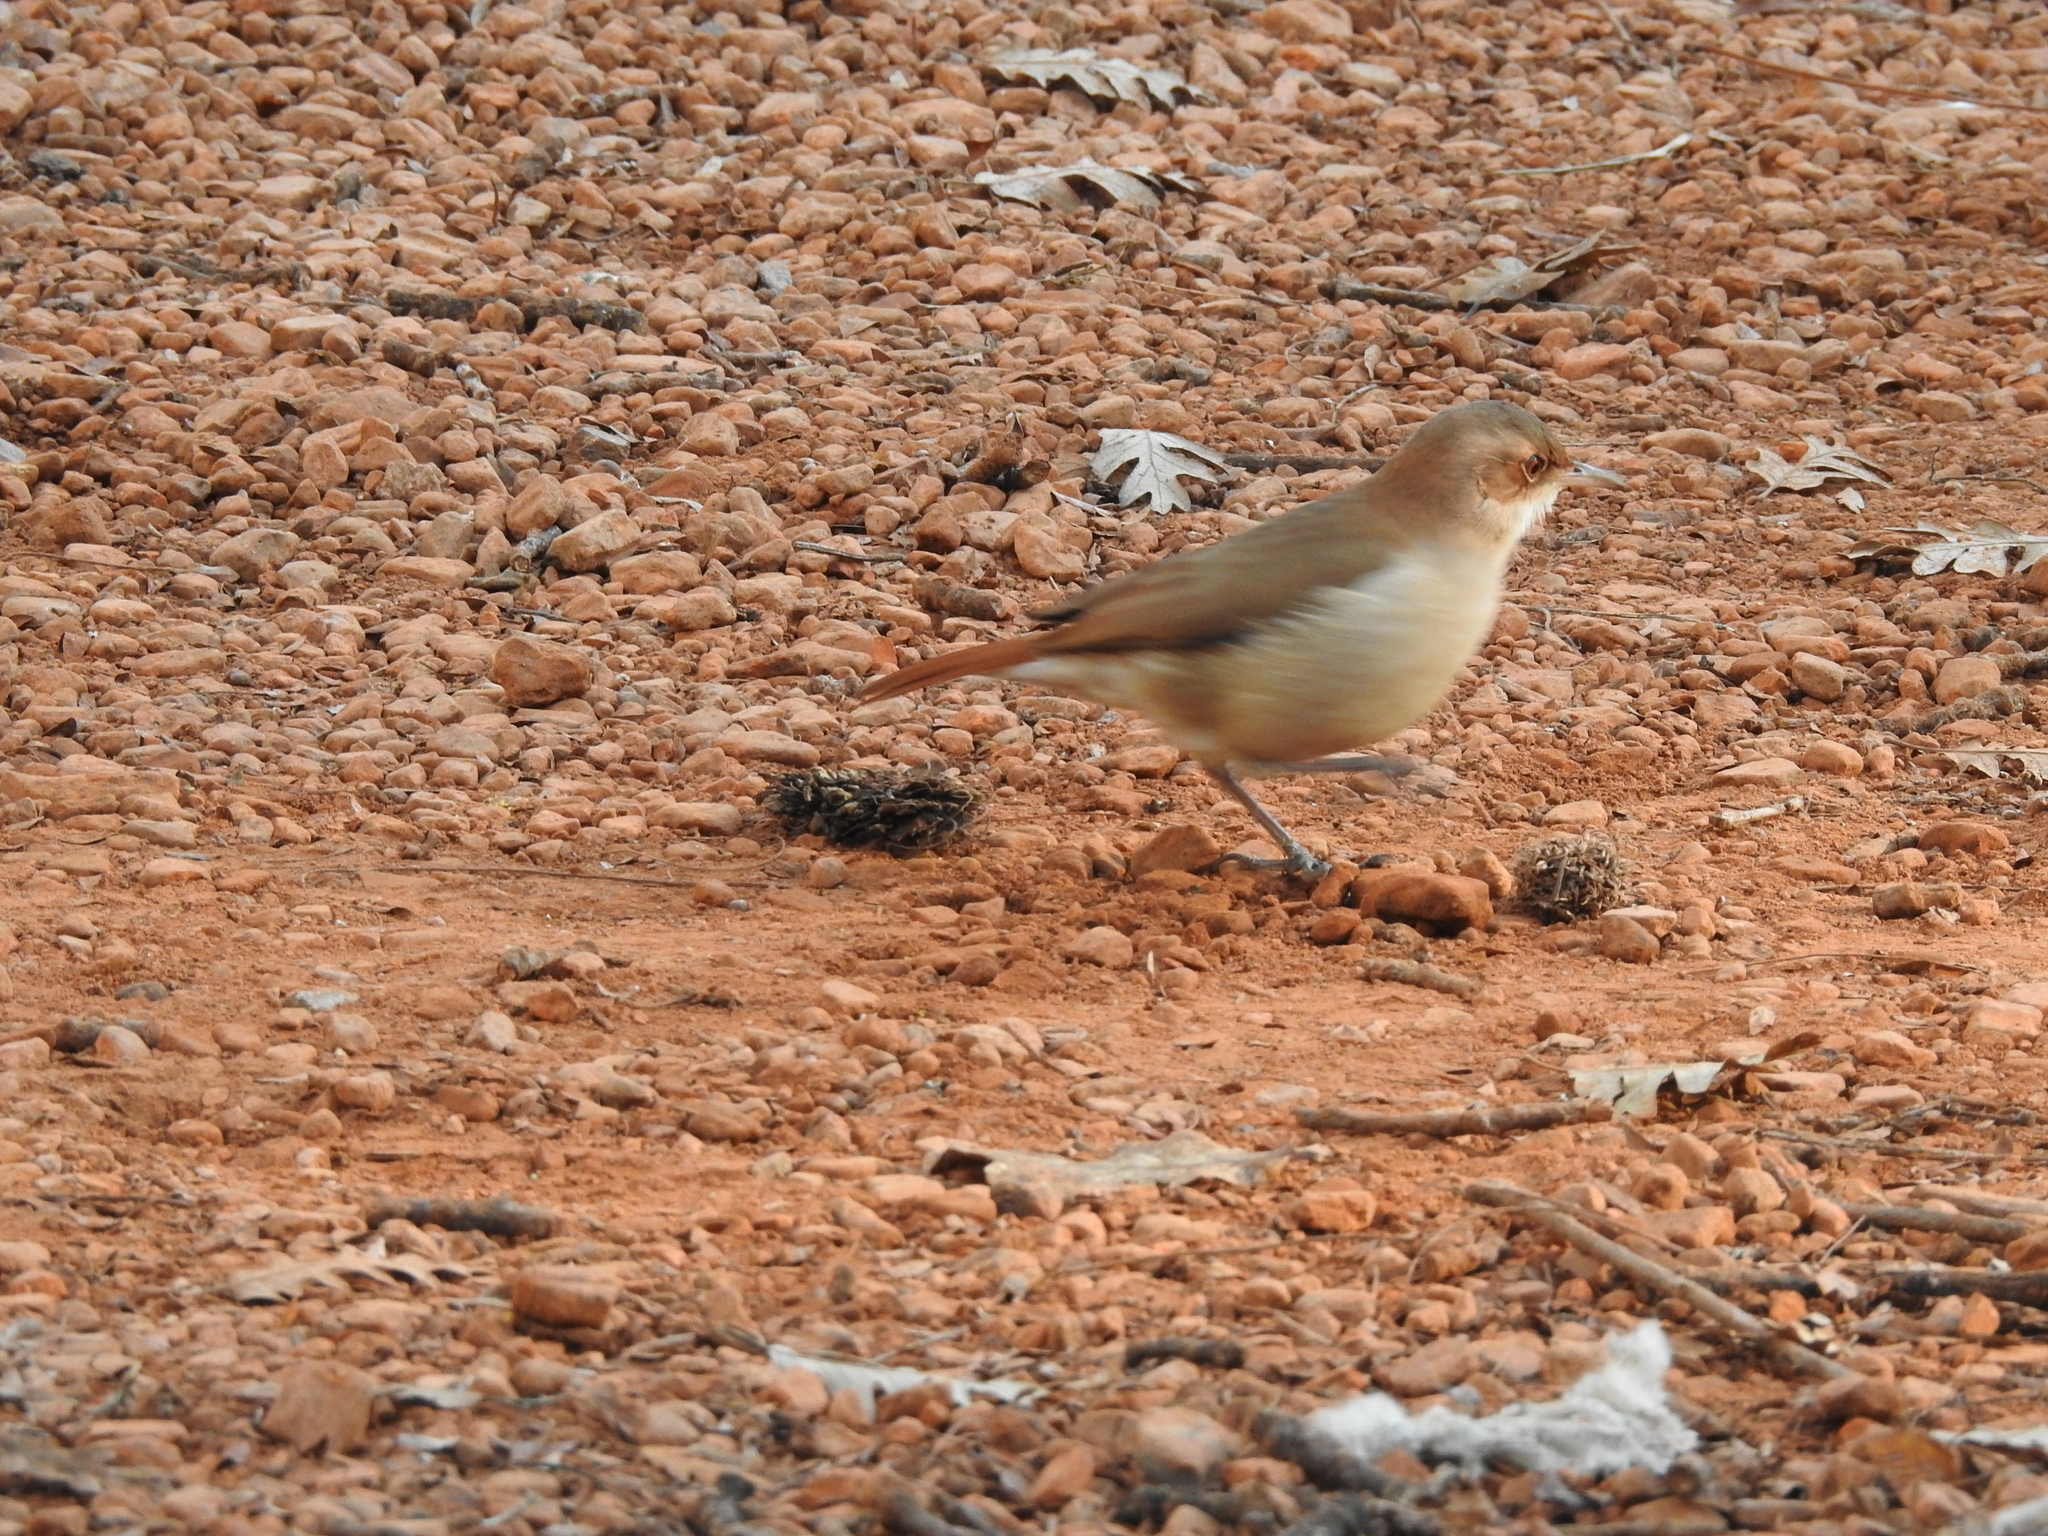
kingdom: Animalia
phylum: Chordata
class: Aves
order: Passeriformes
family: Furnariidae
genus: Furnarius
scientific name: Furnarius rufus
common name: Rufous hornero
